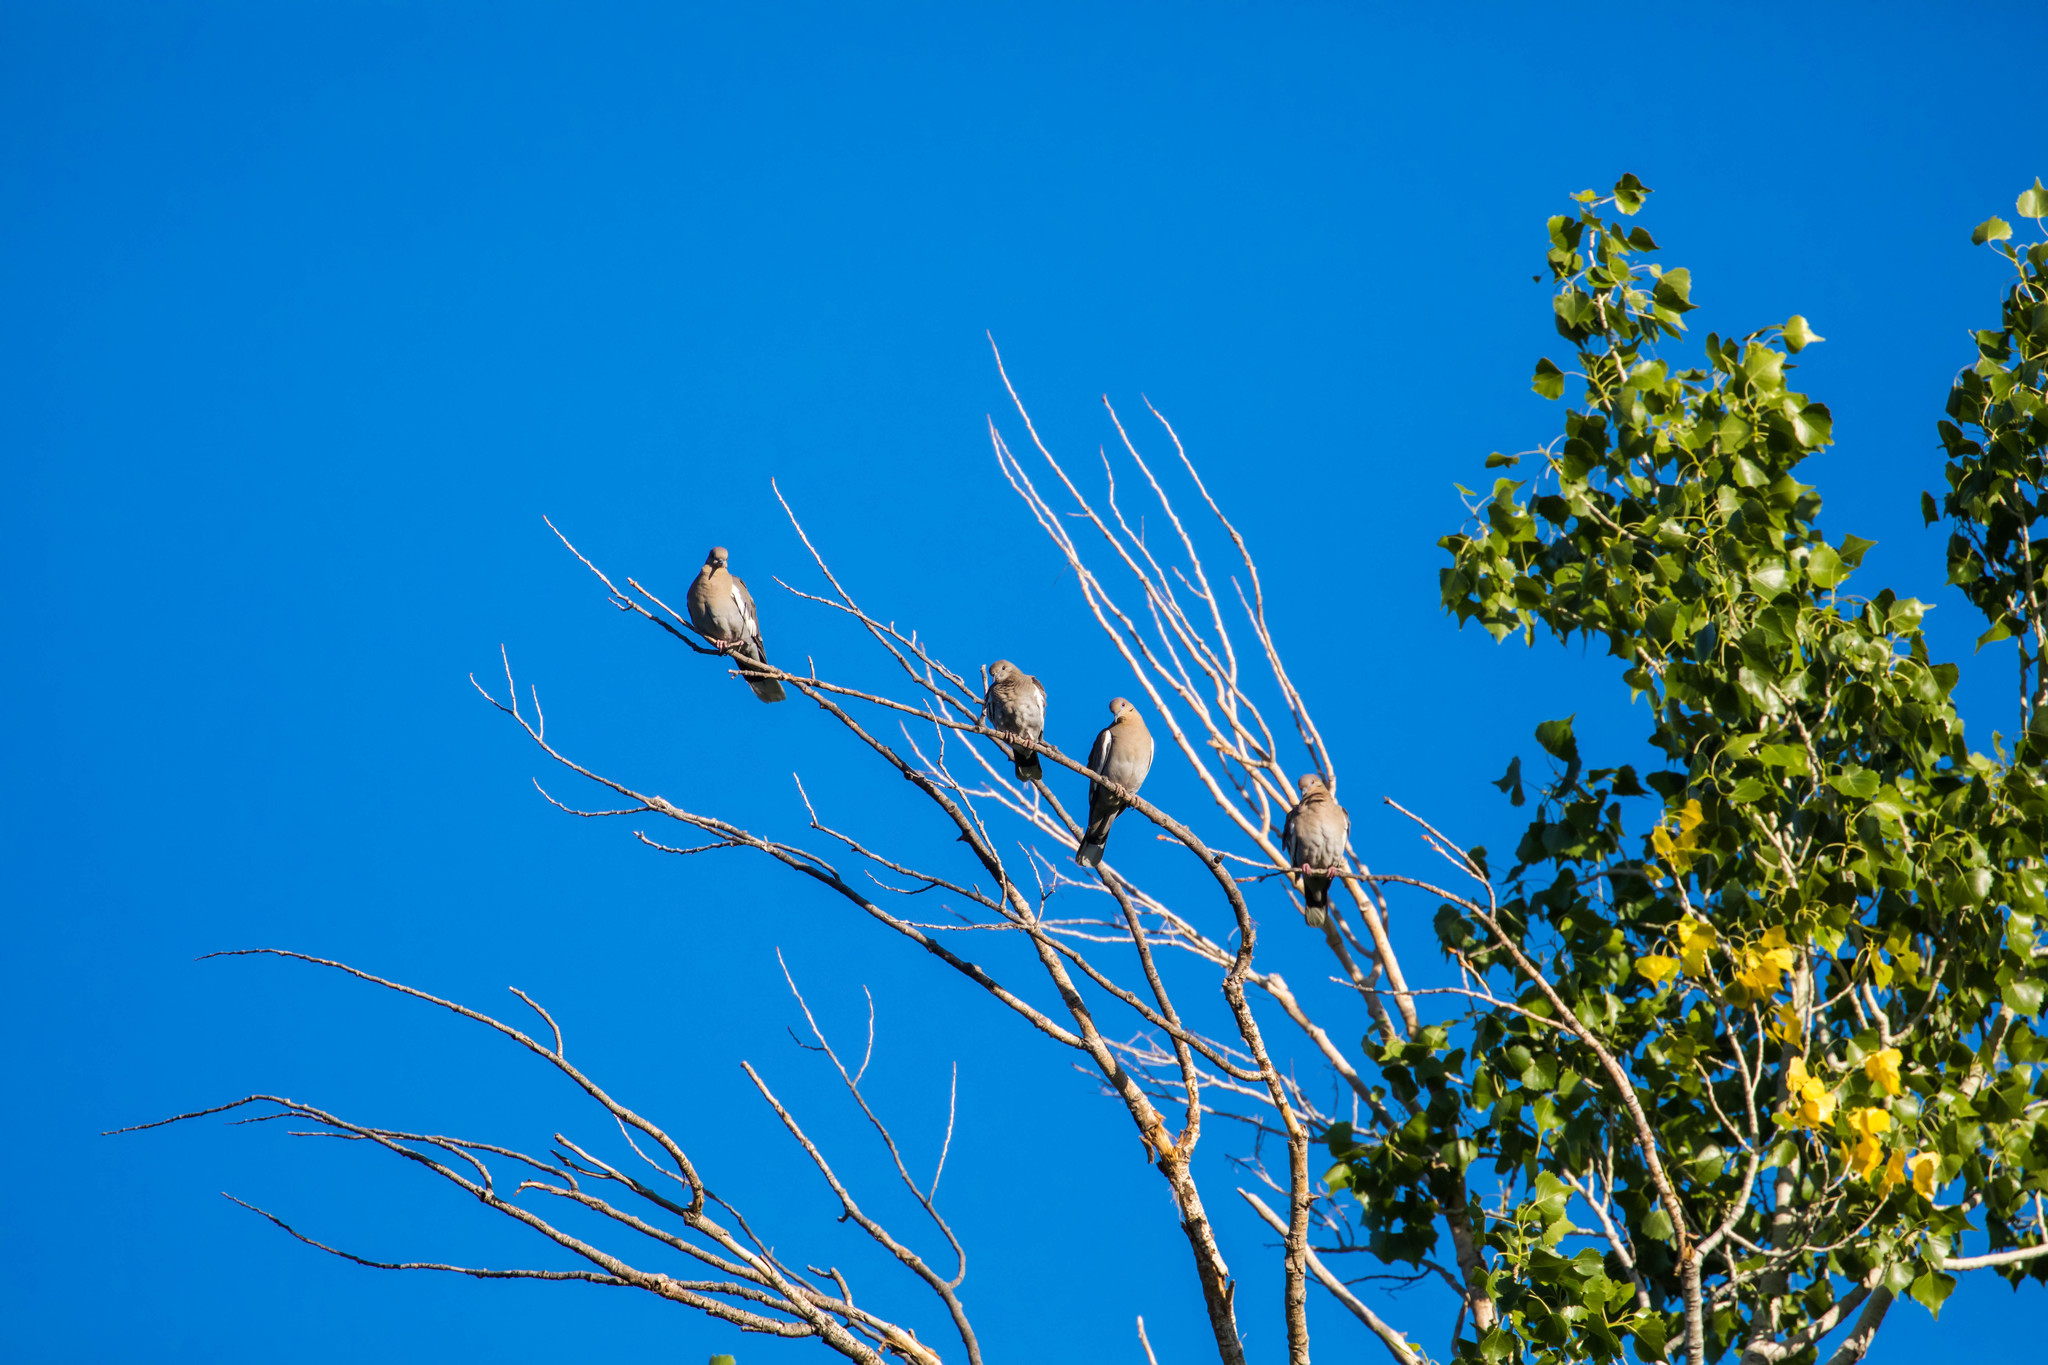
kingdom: Animalia
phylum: Chordata
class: Aves
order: Columbiformes
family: Columbidae
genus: Zenaida
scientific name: Zenaida asiatica
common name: White-winged dove
